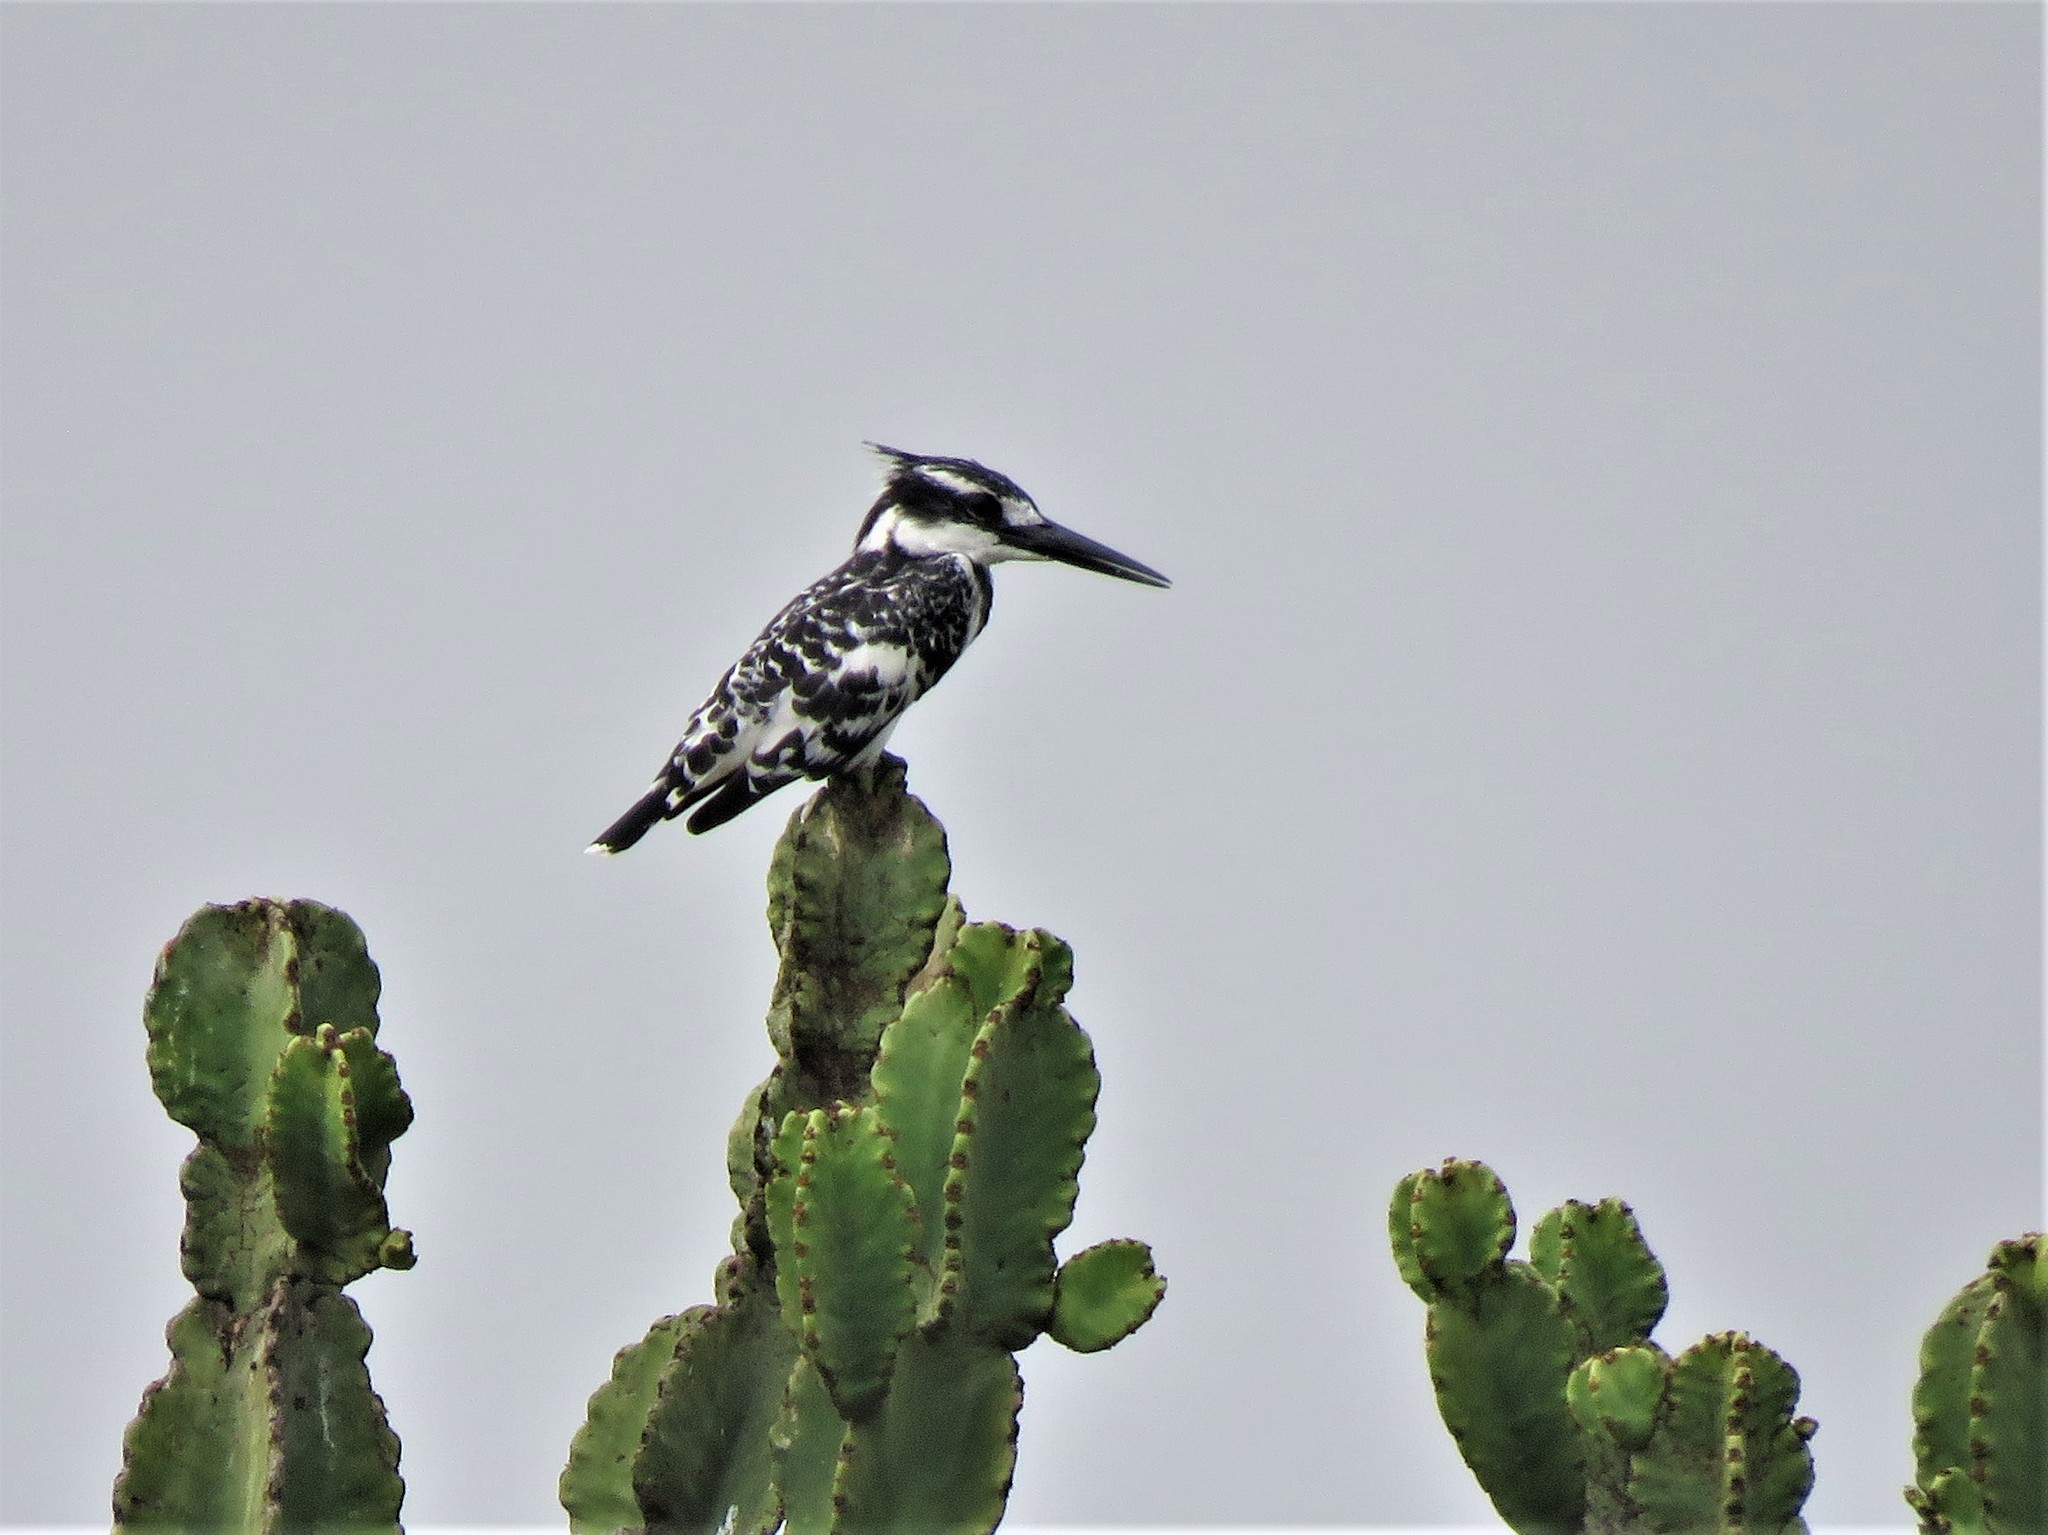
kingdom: Animalia
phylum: Chordata
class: Aves
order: Coraciiformes
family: Alcedinidae
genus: Ceryle
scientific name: Ceryle rudis
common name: Pied kingfisher
